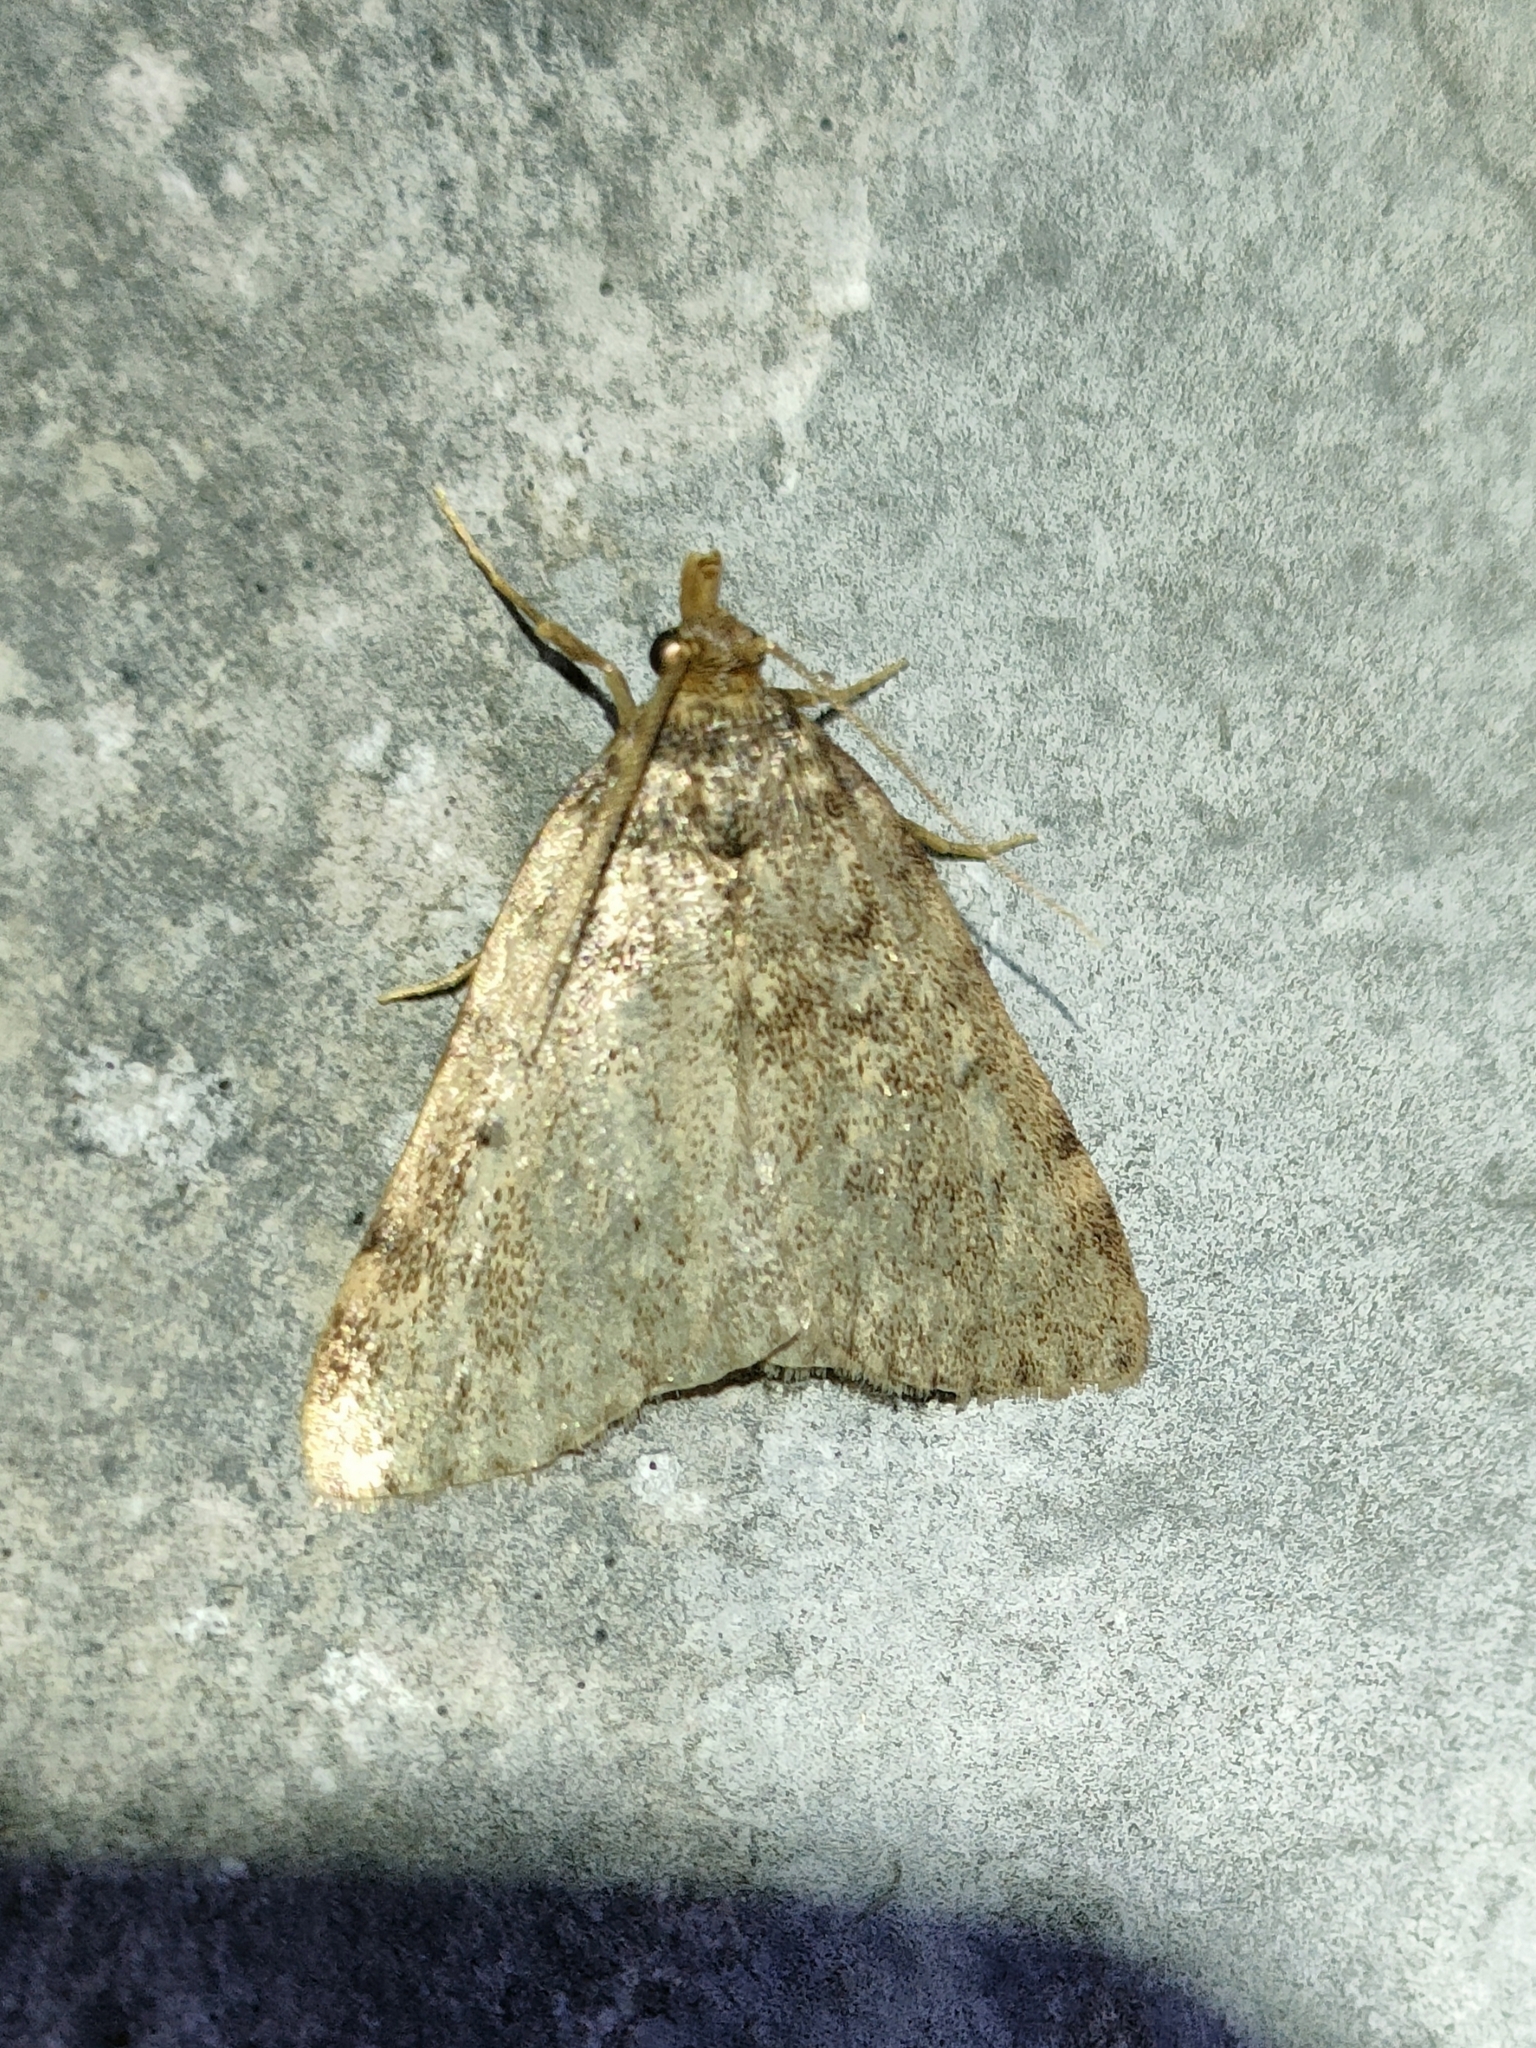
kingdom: Animalia
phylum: Arthropoda
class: Insecta
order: Lepidoptera
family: Pyralidae
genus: Aglossa
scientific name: Aglossa pinguinalis
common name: Large tabby
